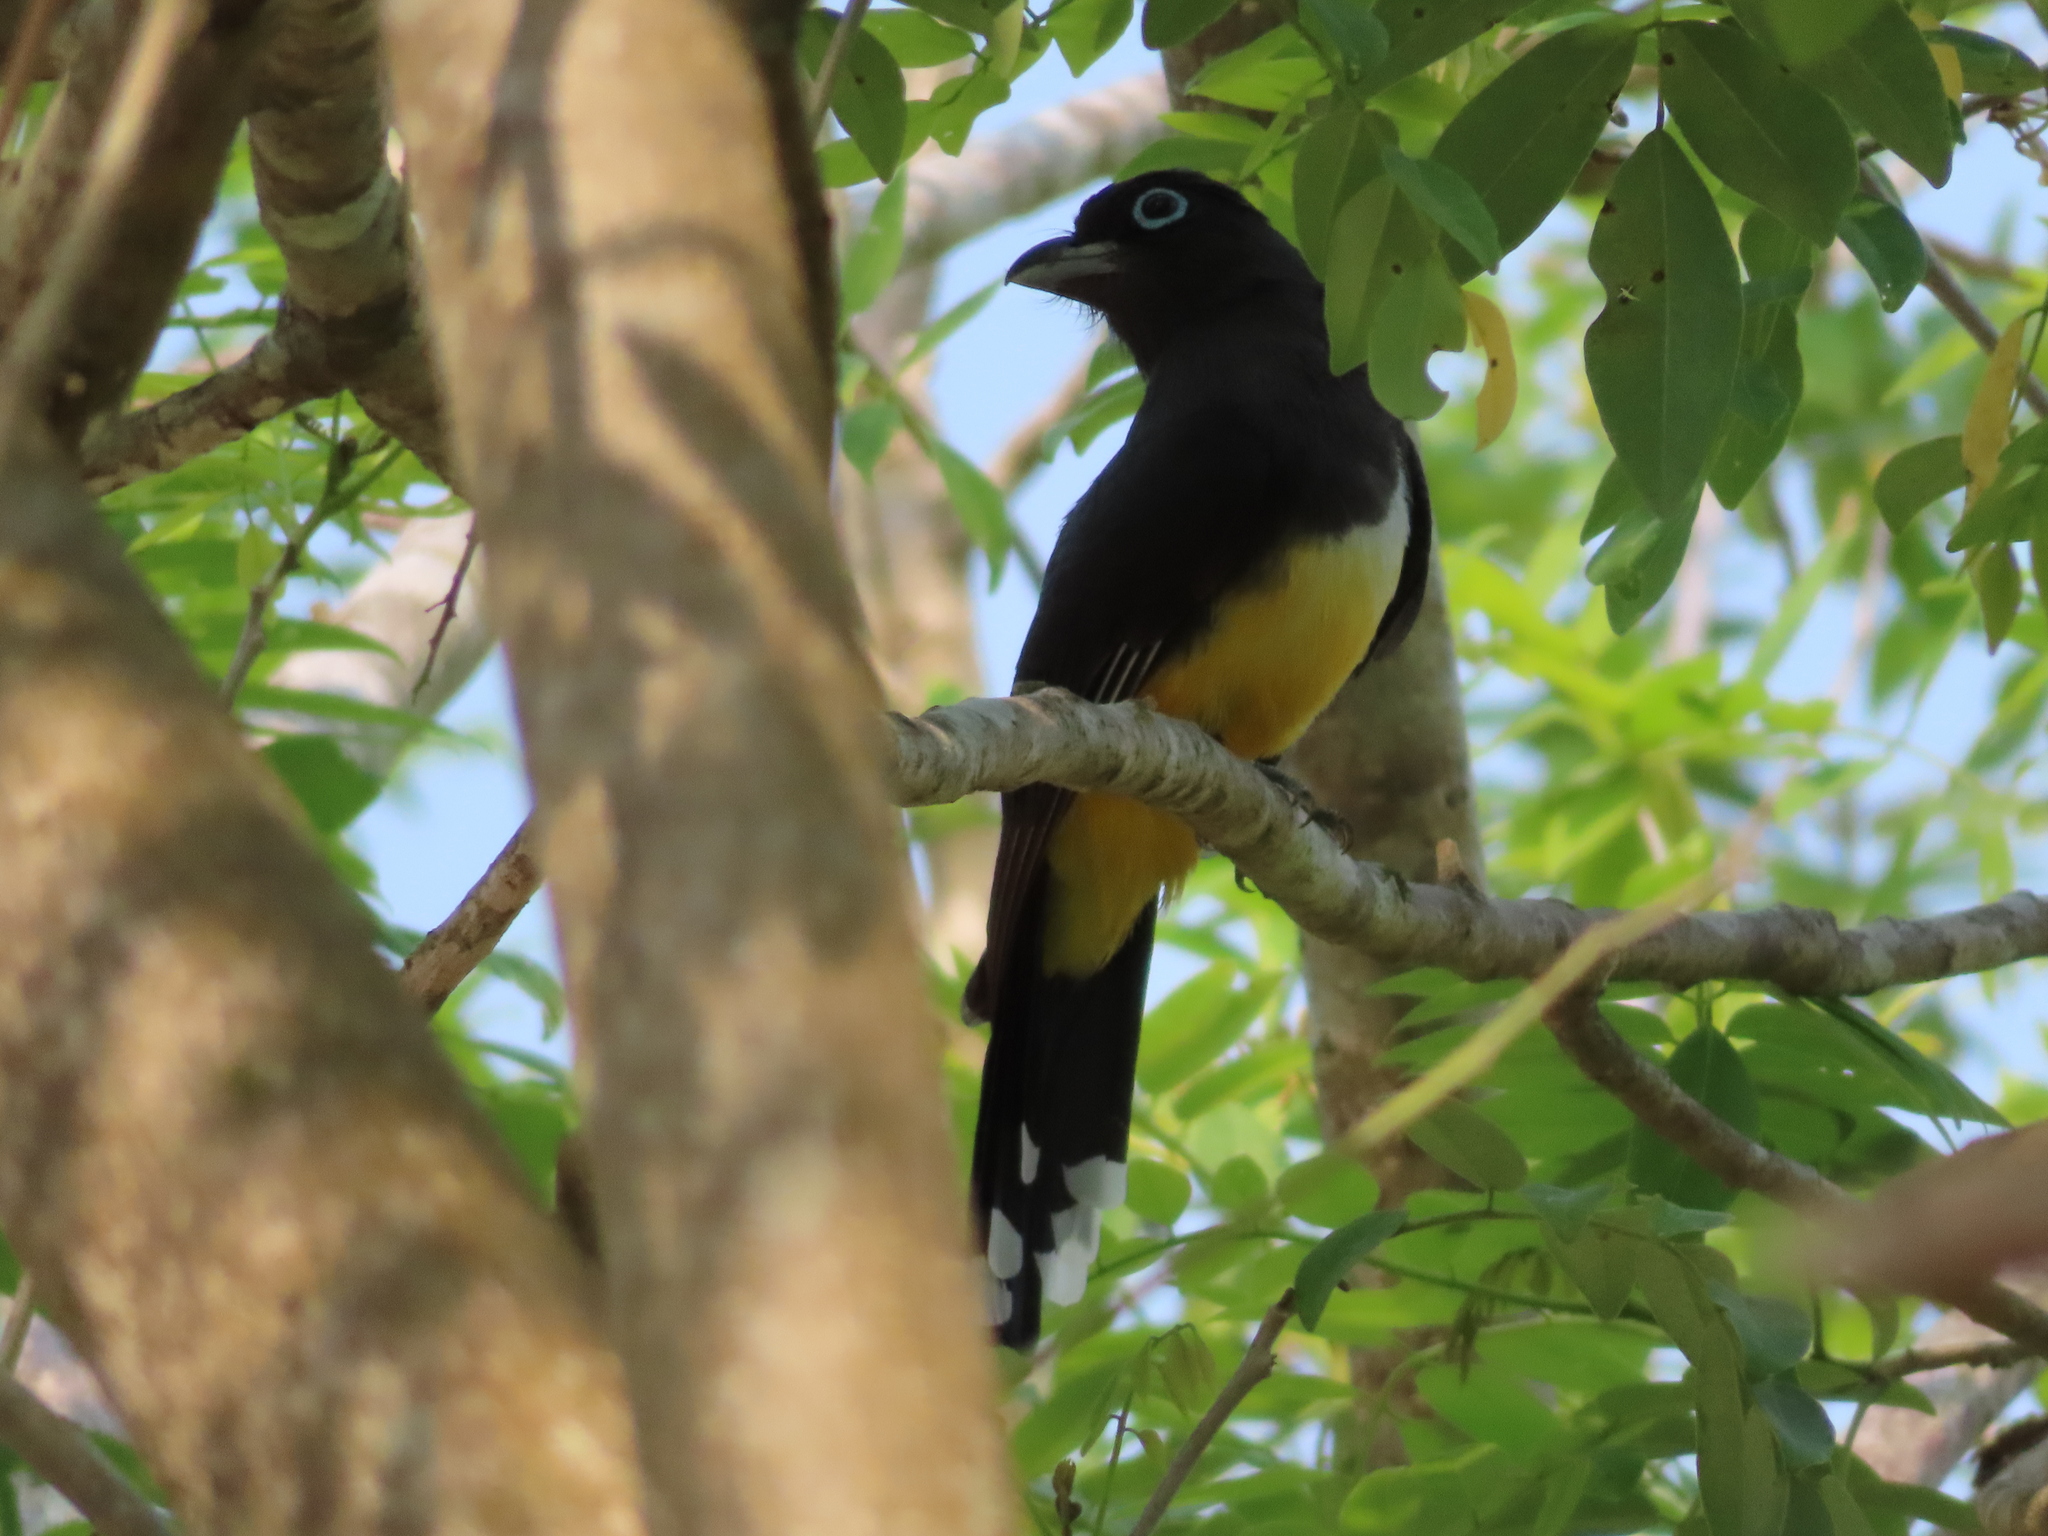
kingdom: Animalia
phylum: Chordata
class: Aves
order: Trogoniformes
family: Trogonidae
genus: Trogon
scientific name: Trogon melanocephalus
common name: Black-headed trogon
